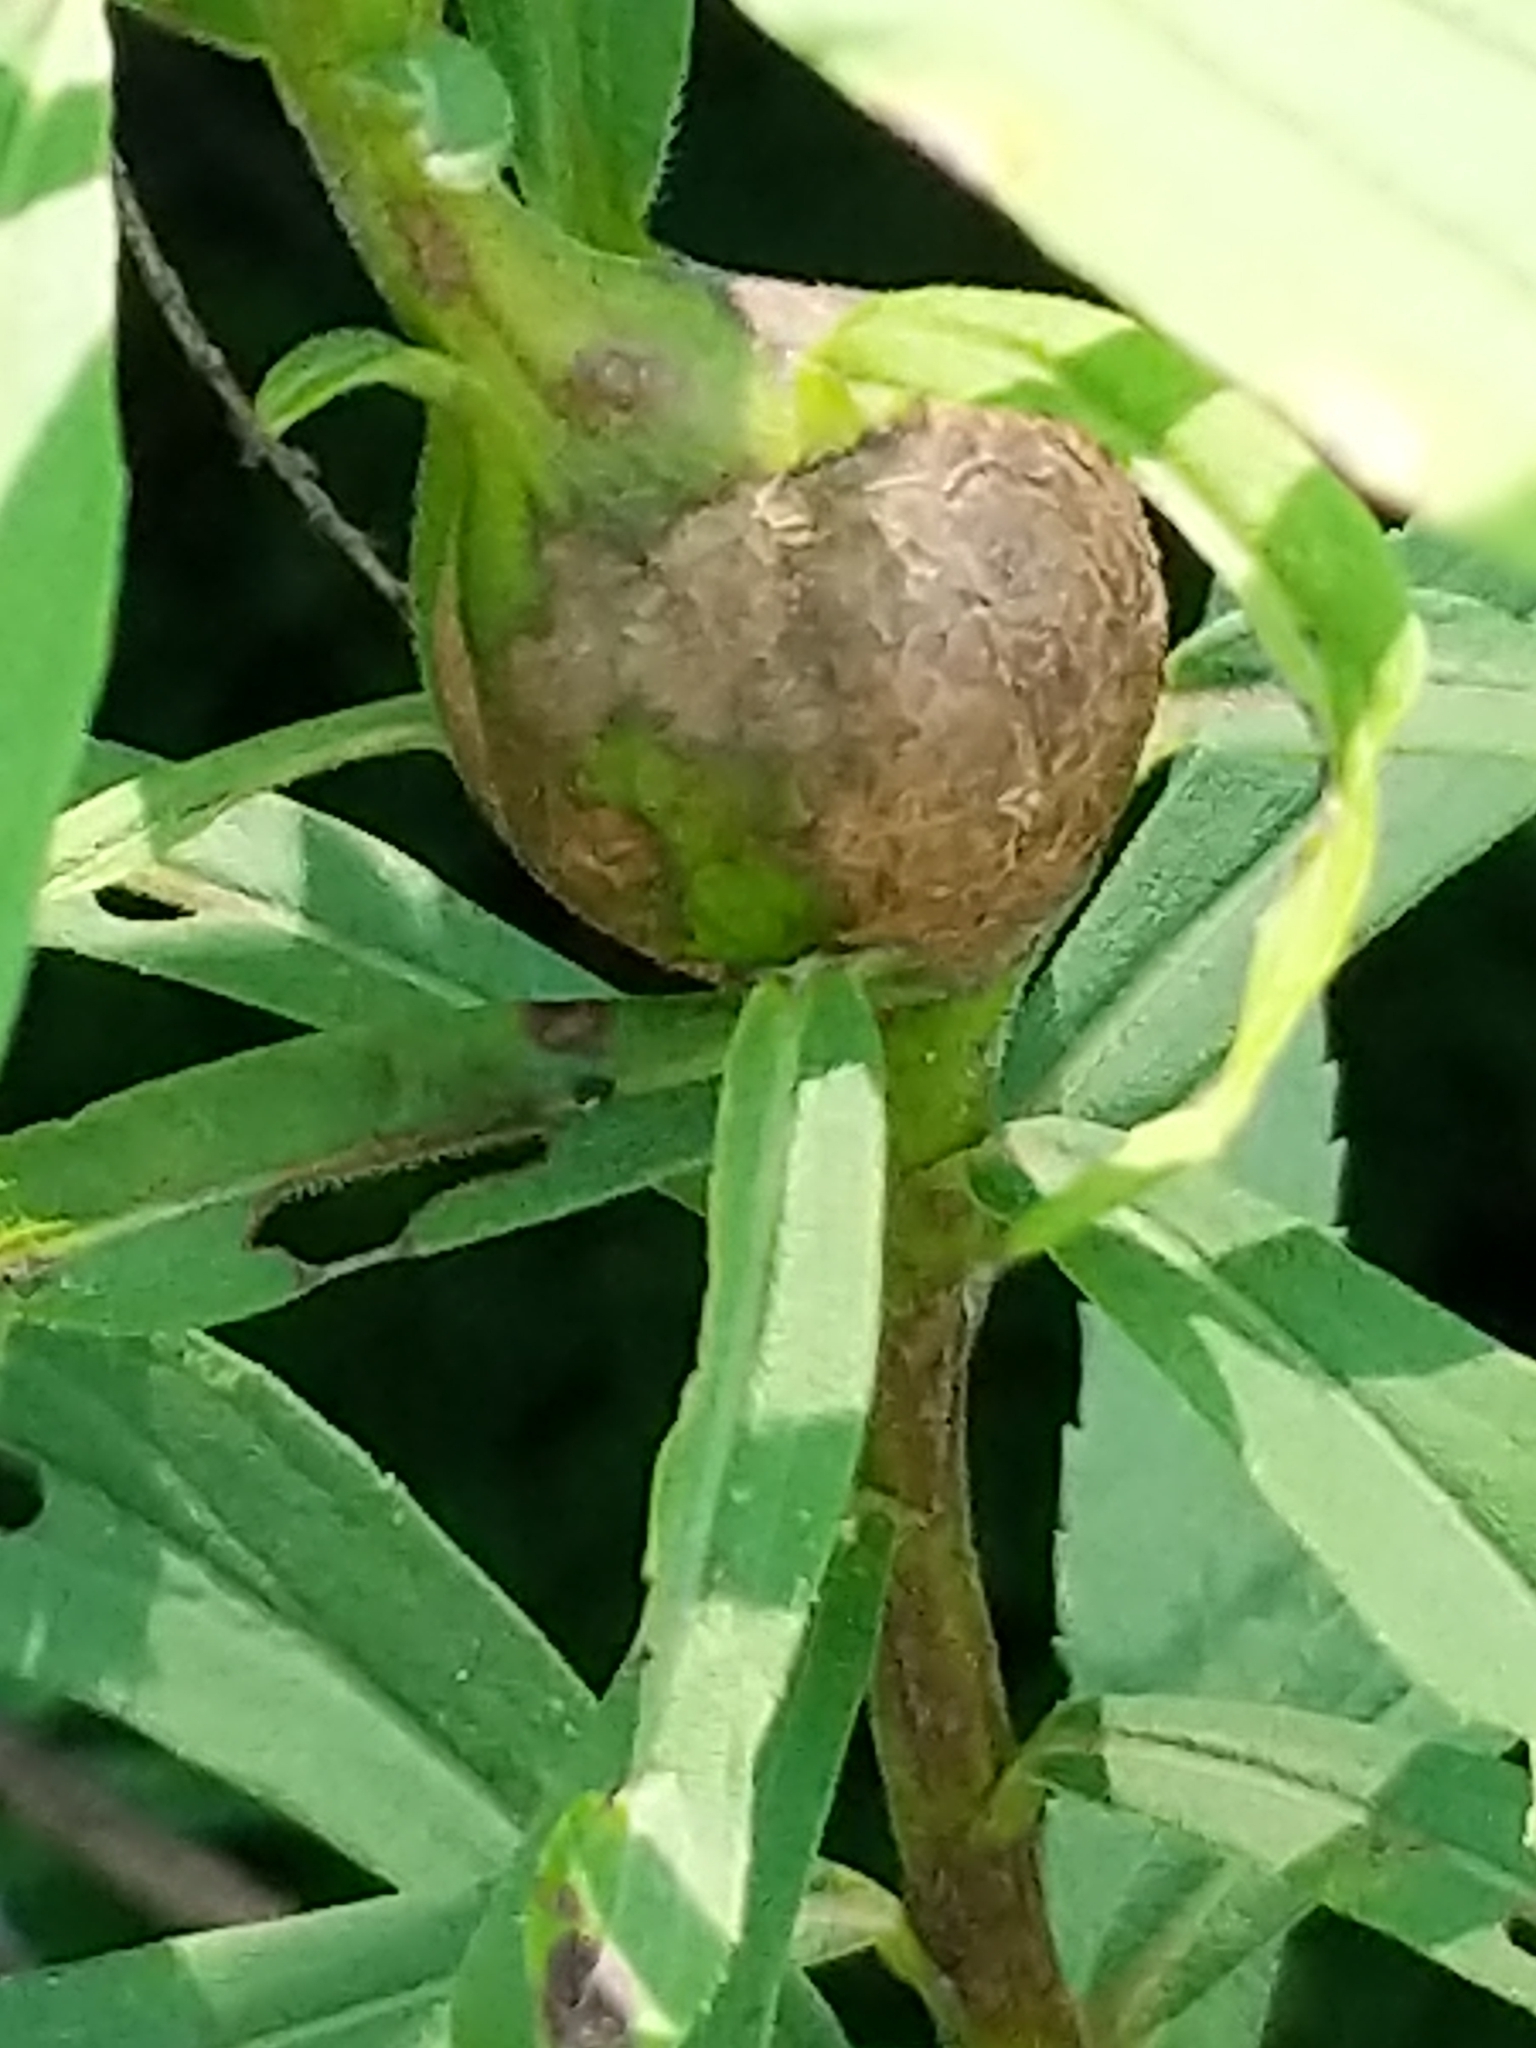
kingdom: Animalia
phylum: Arthropoda
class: Insecta
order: Diptera
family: Tephritidae
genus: Eurosta
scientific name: Eurosta solidaginis
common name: Goldenrod gall fly
